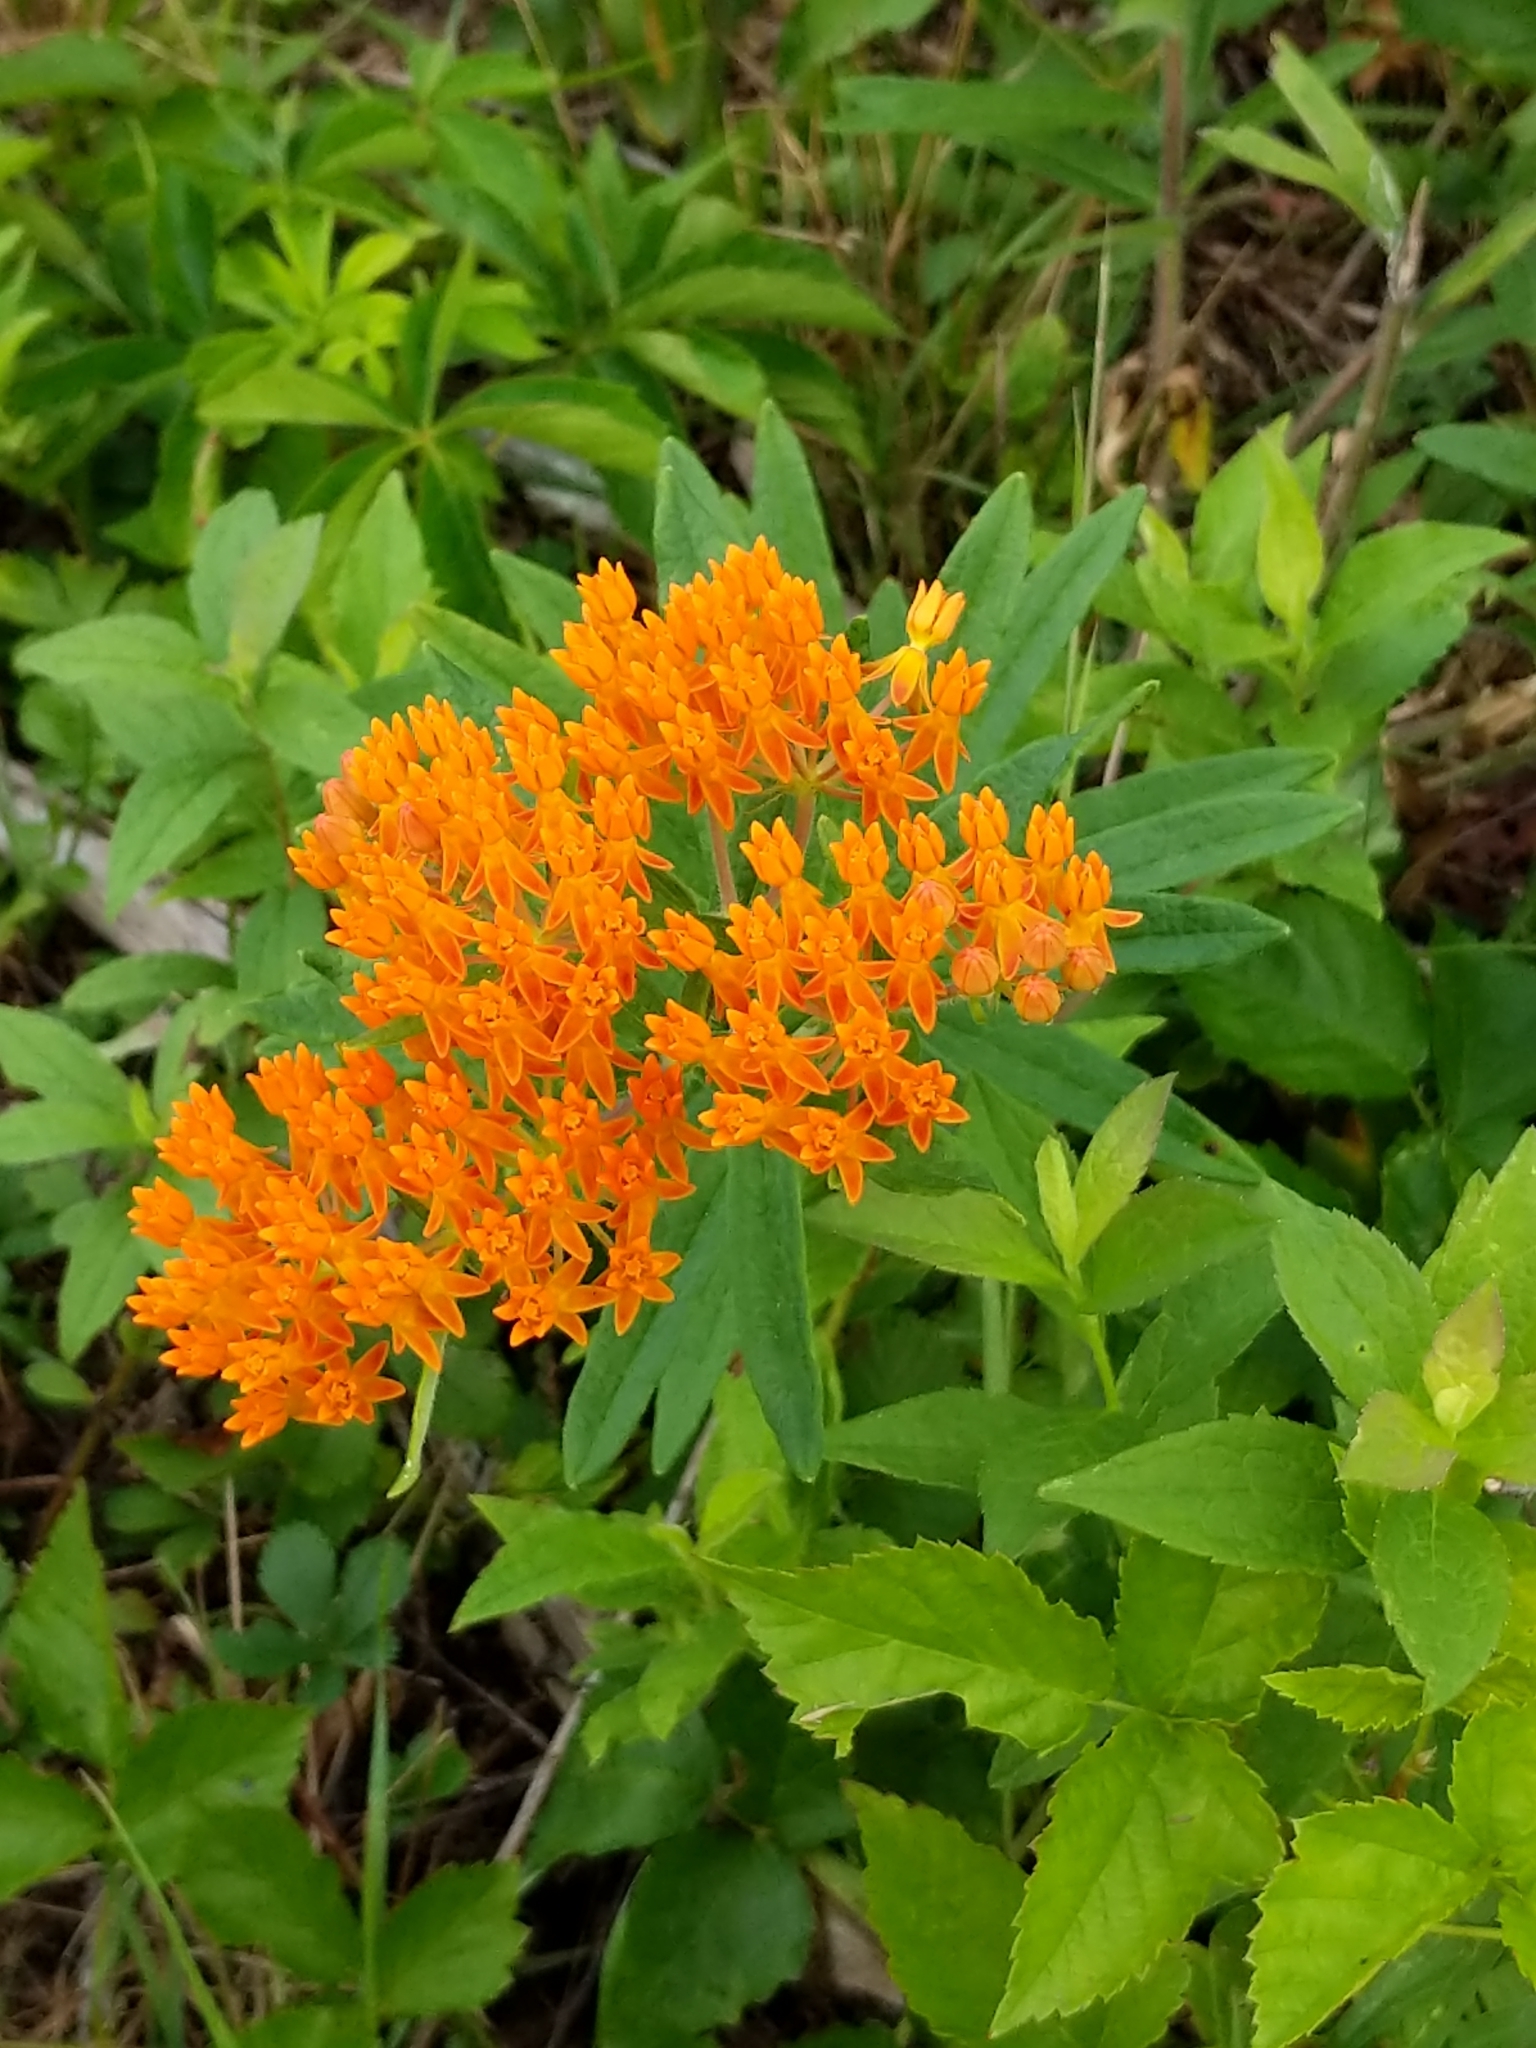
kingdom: Plantae
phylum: Tracheophyta
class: Magnoliopsida
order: Gentianales
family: Apocynaceae
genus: Asclepias
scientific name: Asclepias tuberosa
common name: Butterfly milkweed
